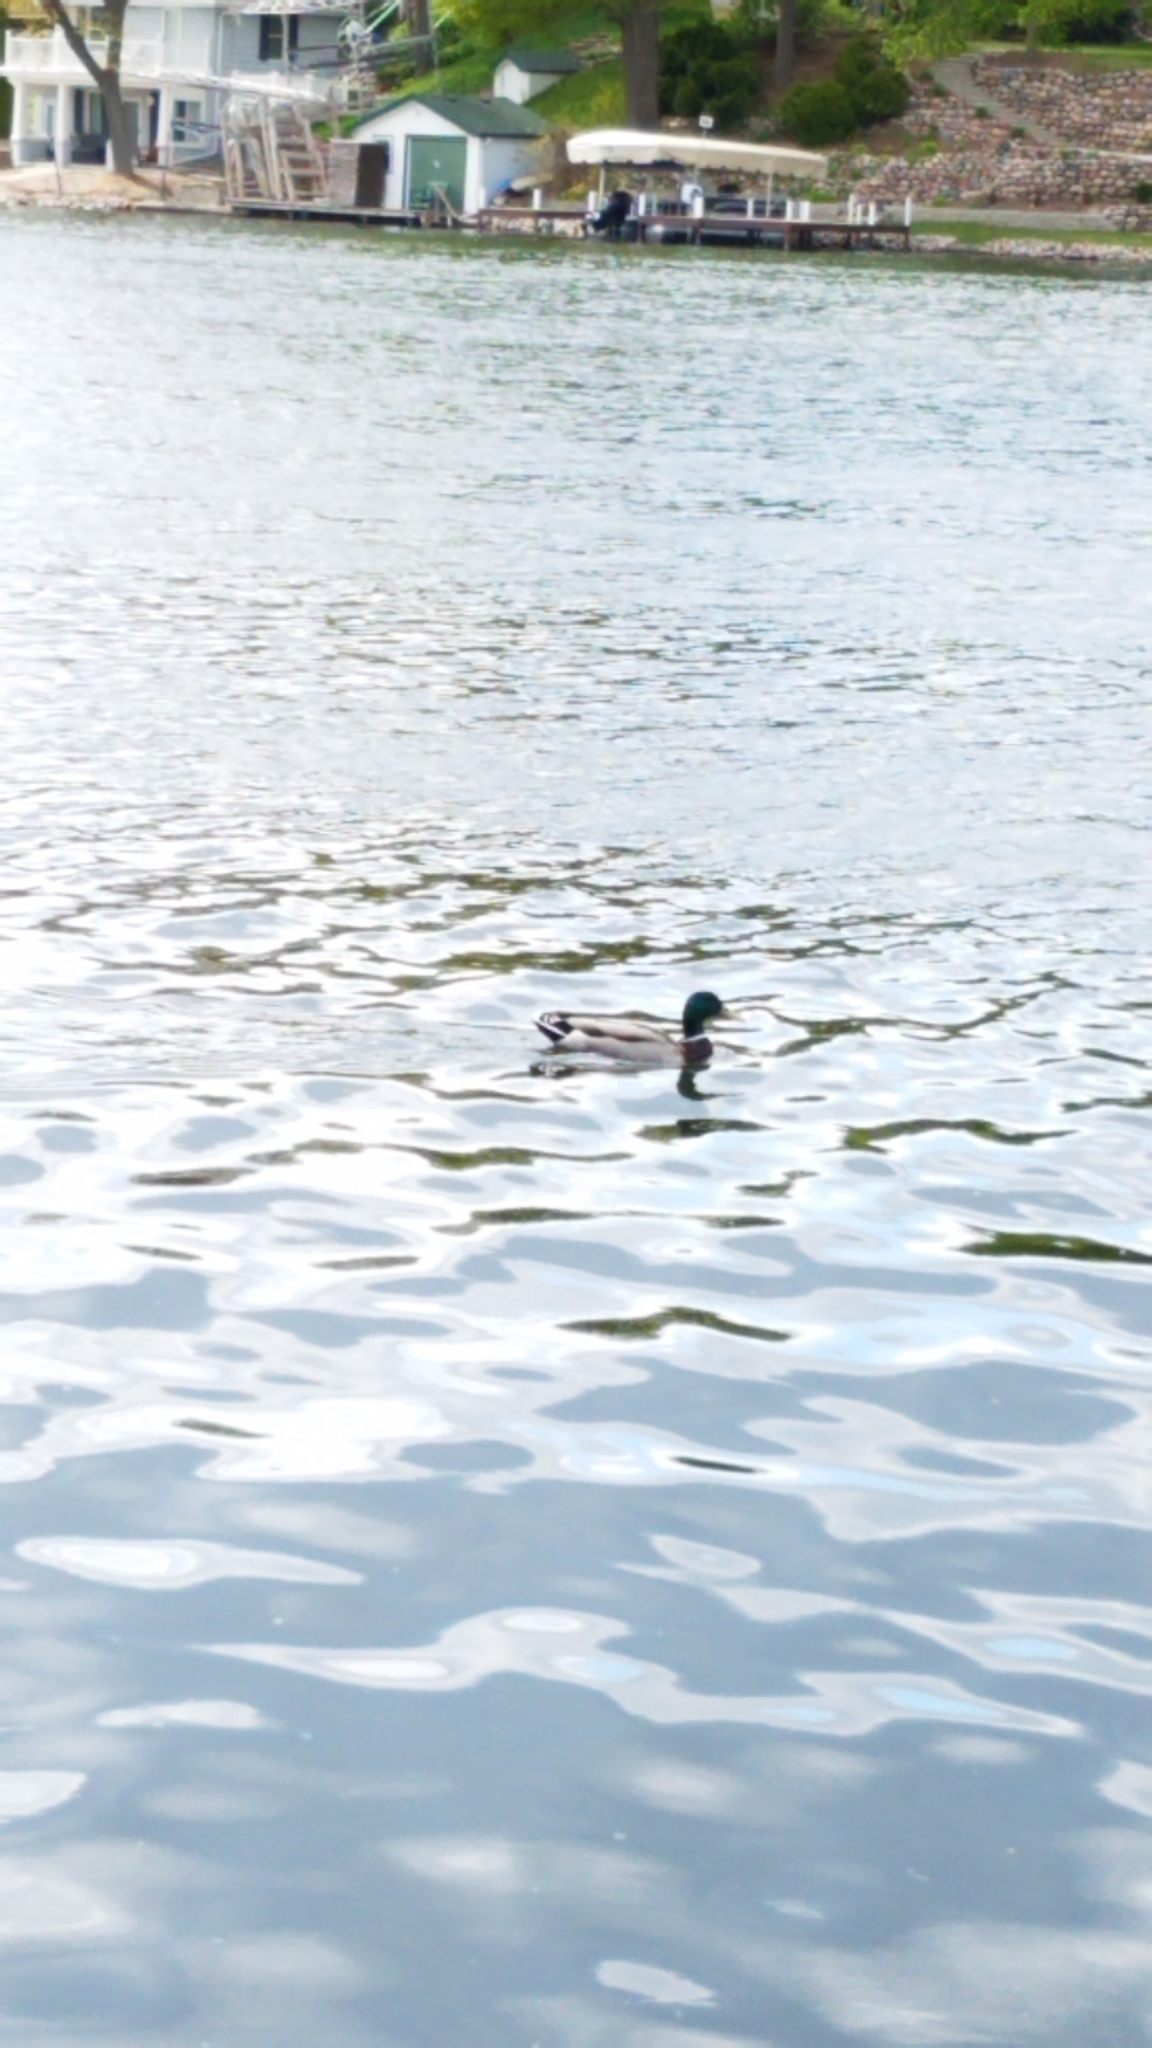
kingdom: Animalia
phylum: Chordata
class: Aves
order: Anseriformes
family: Anatidae
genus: Anas
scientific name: Anas platyrhynchos
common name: Mallard
